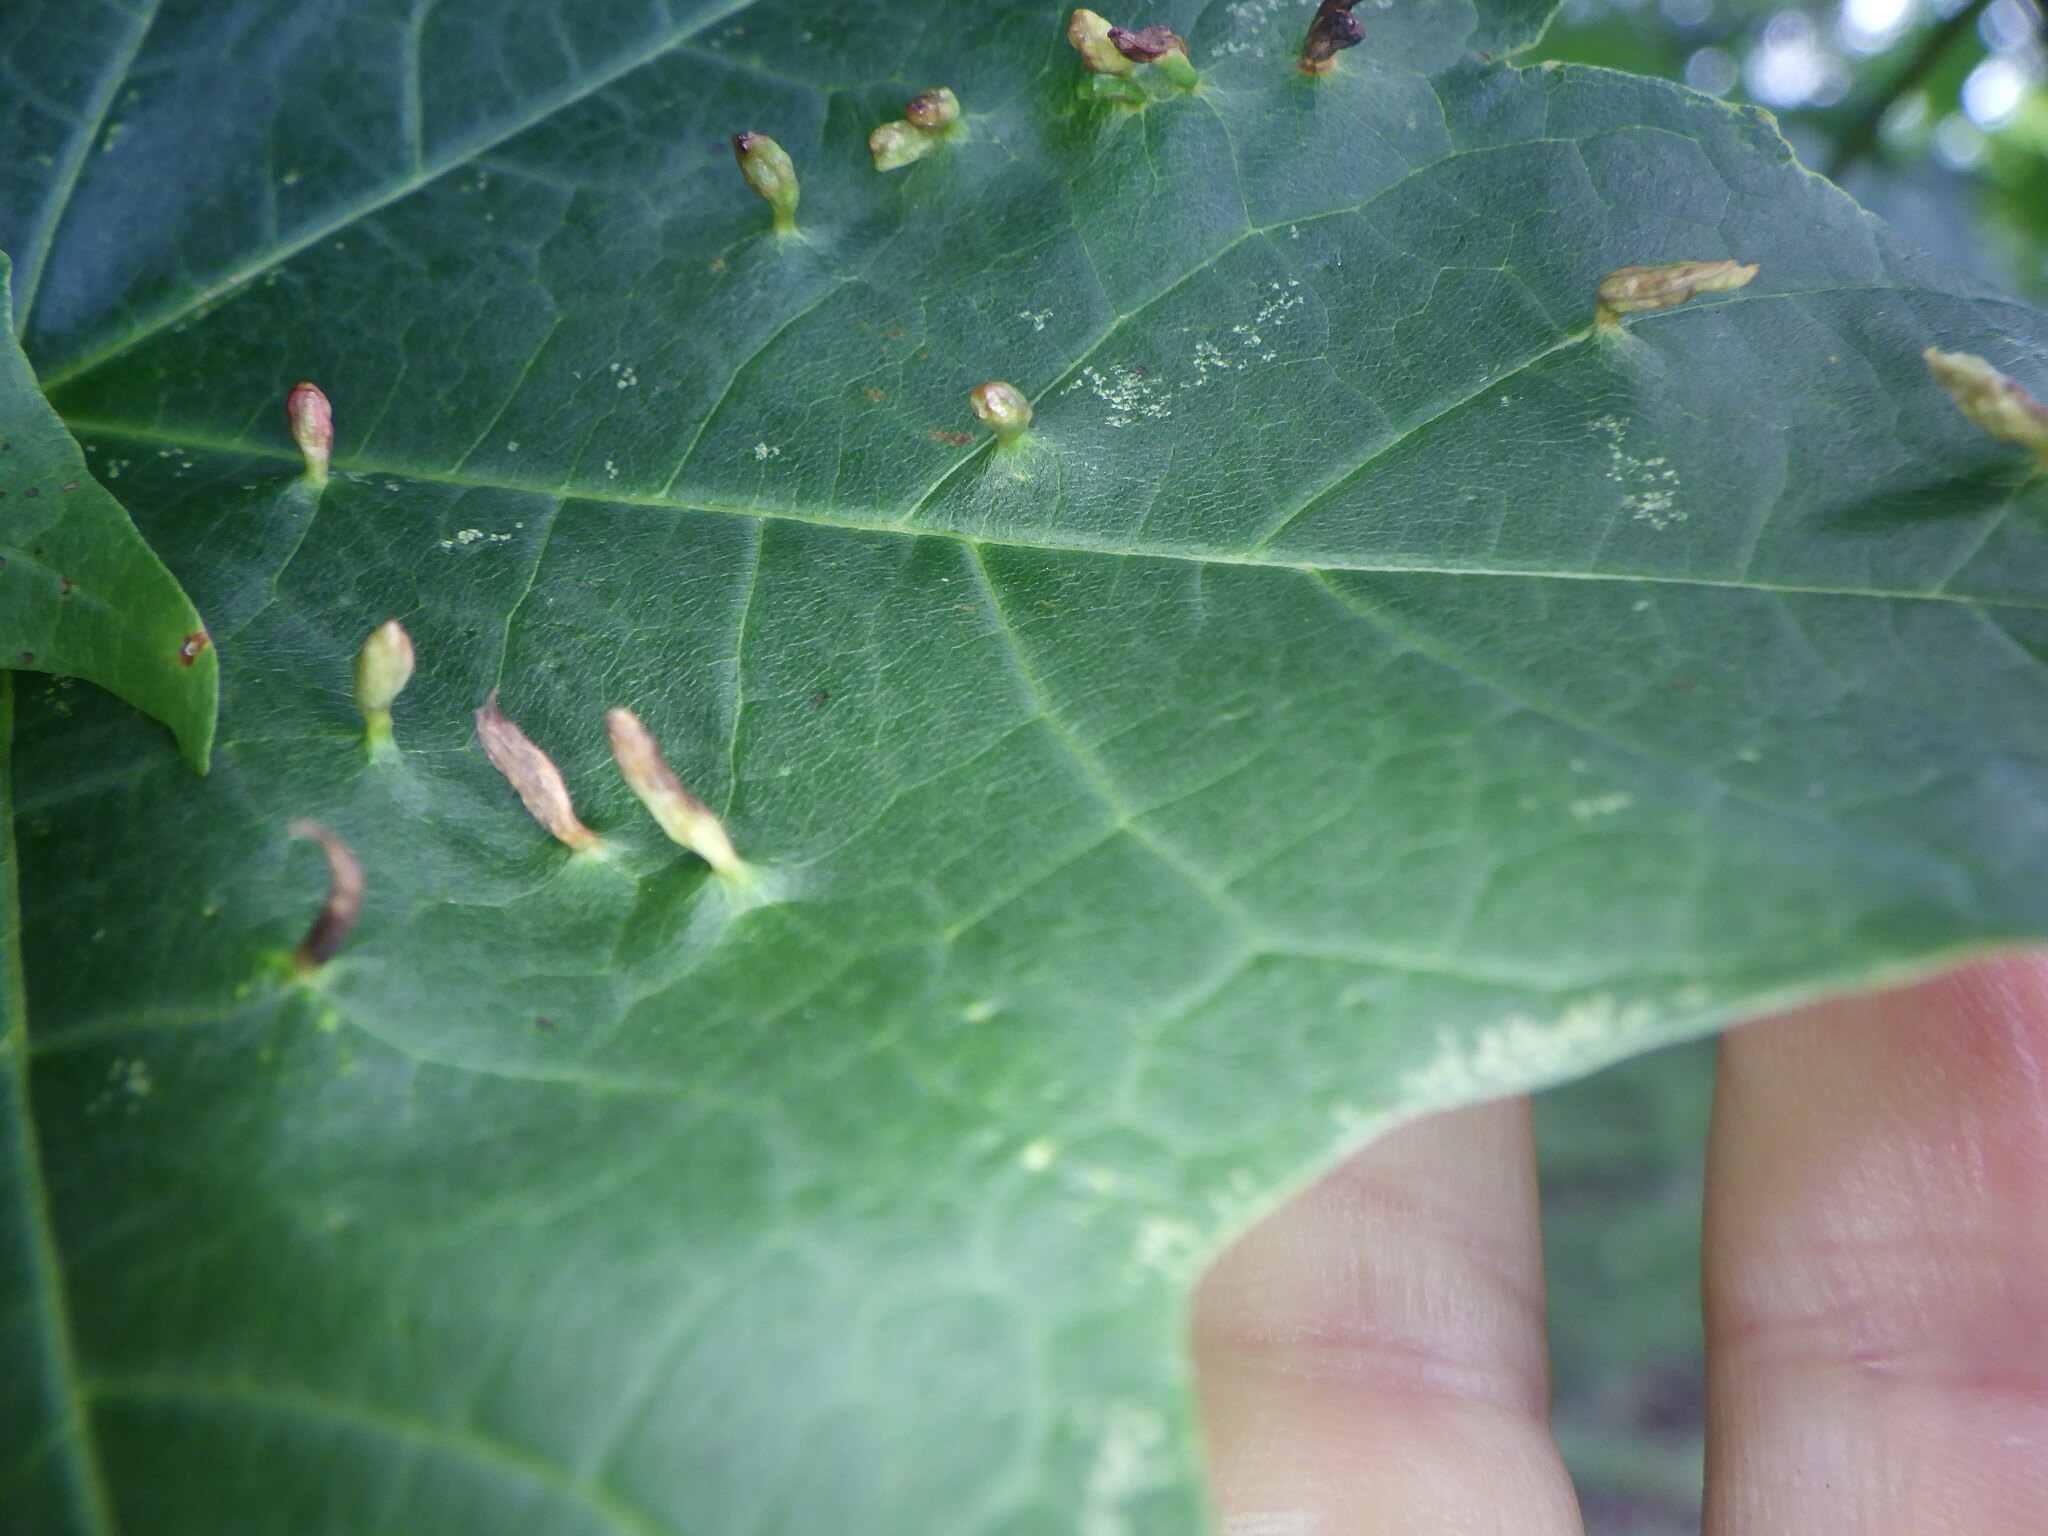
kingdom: Animalia
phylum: Arthropoda
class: Arachnida
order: Trombidiformes
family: Eriophyidae
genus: Vasates
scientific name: Vasates aceriscrumena
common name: Maple spindle gall mite
